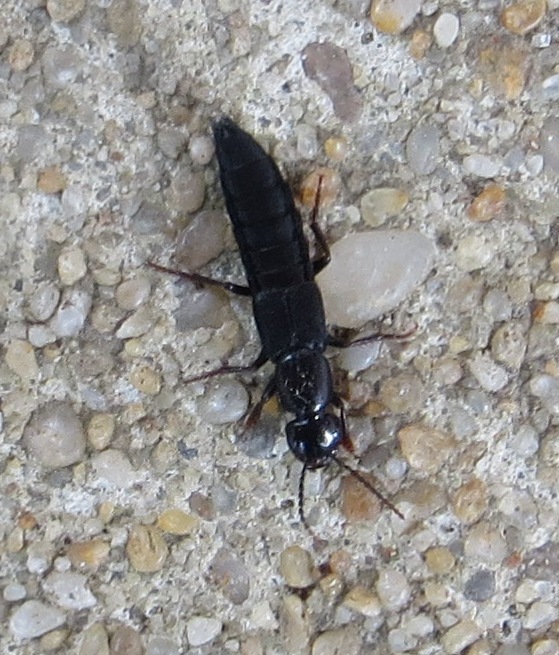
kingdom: Animalia
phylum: Arthropoda
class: Insecta
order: Coleoptera
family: Staphylinidae
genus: Tasgius
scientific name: Tasgius ater
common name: Staph beetle
